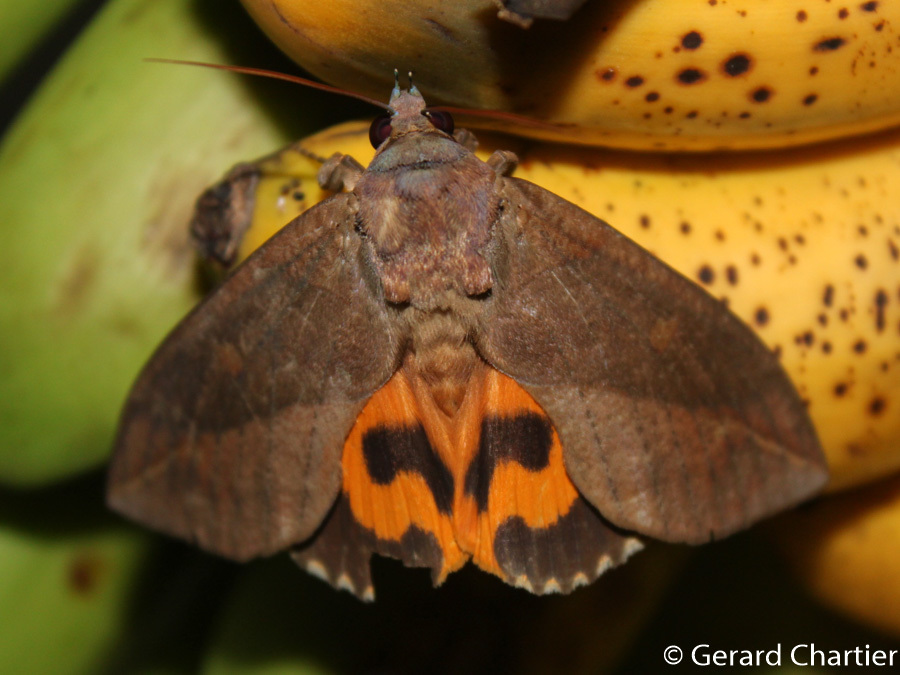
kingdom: Animalia
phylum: Arthropoda
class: Insecta
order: Lepidoptera
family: Erebidae
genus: Eudocima
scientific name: Eudocima phalonia
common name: Wasp
